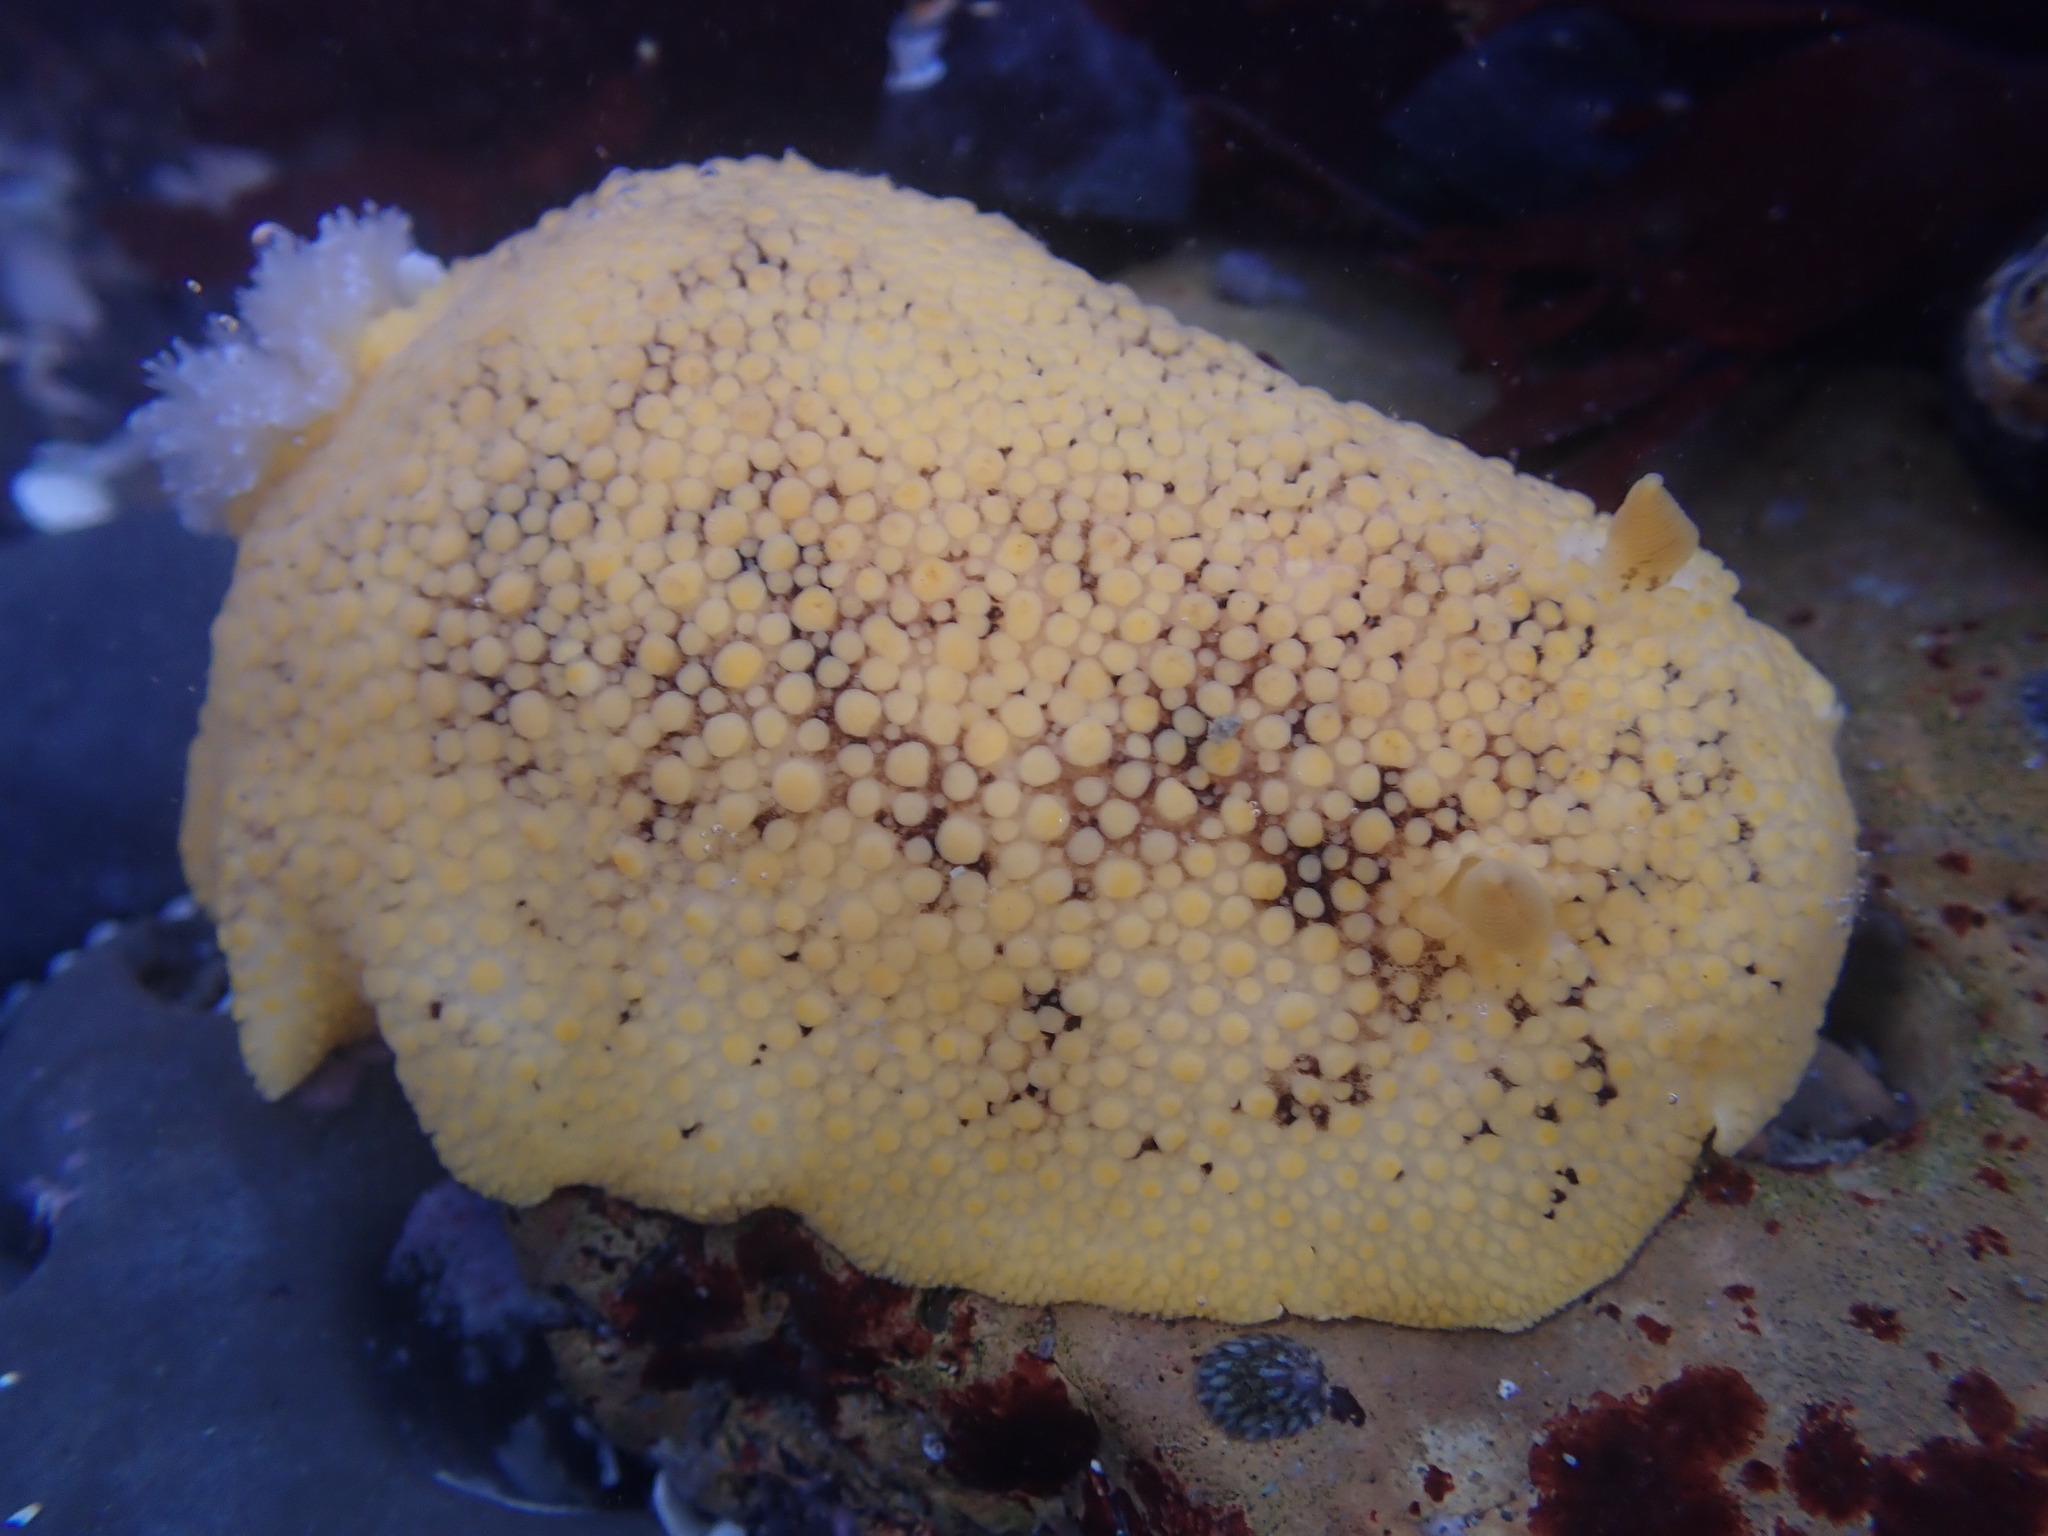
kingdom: Animalia
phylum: Mollusca
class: Gastropoda
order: Nudibranchia
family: Discodorididae
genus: Peltodoris
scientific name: Peltodoris nobilis
